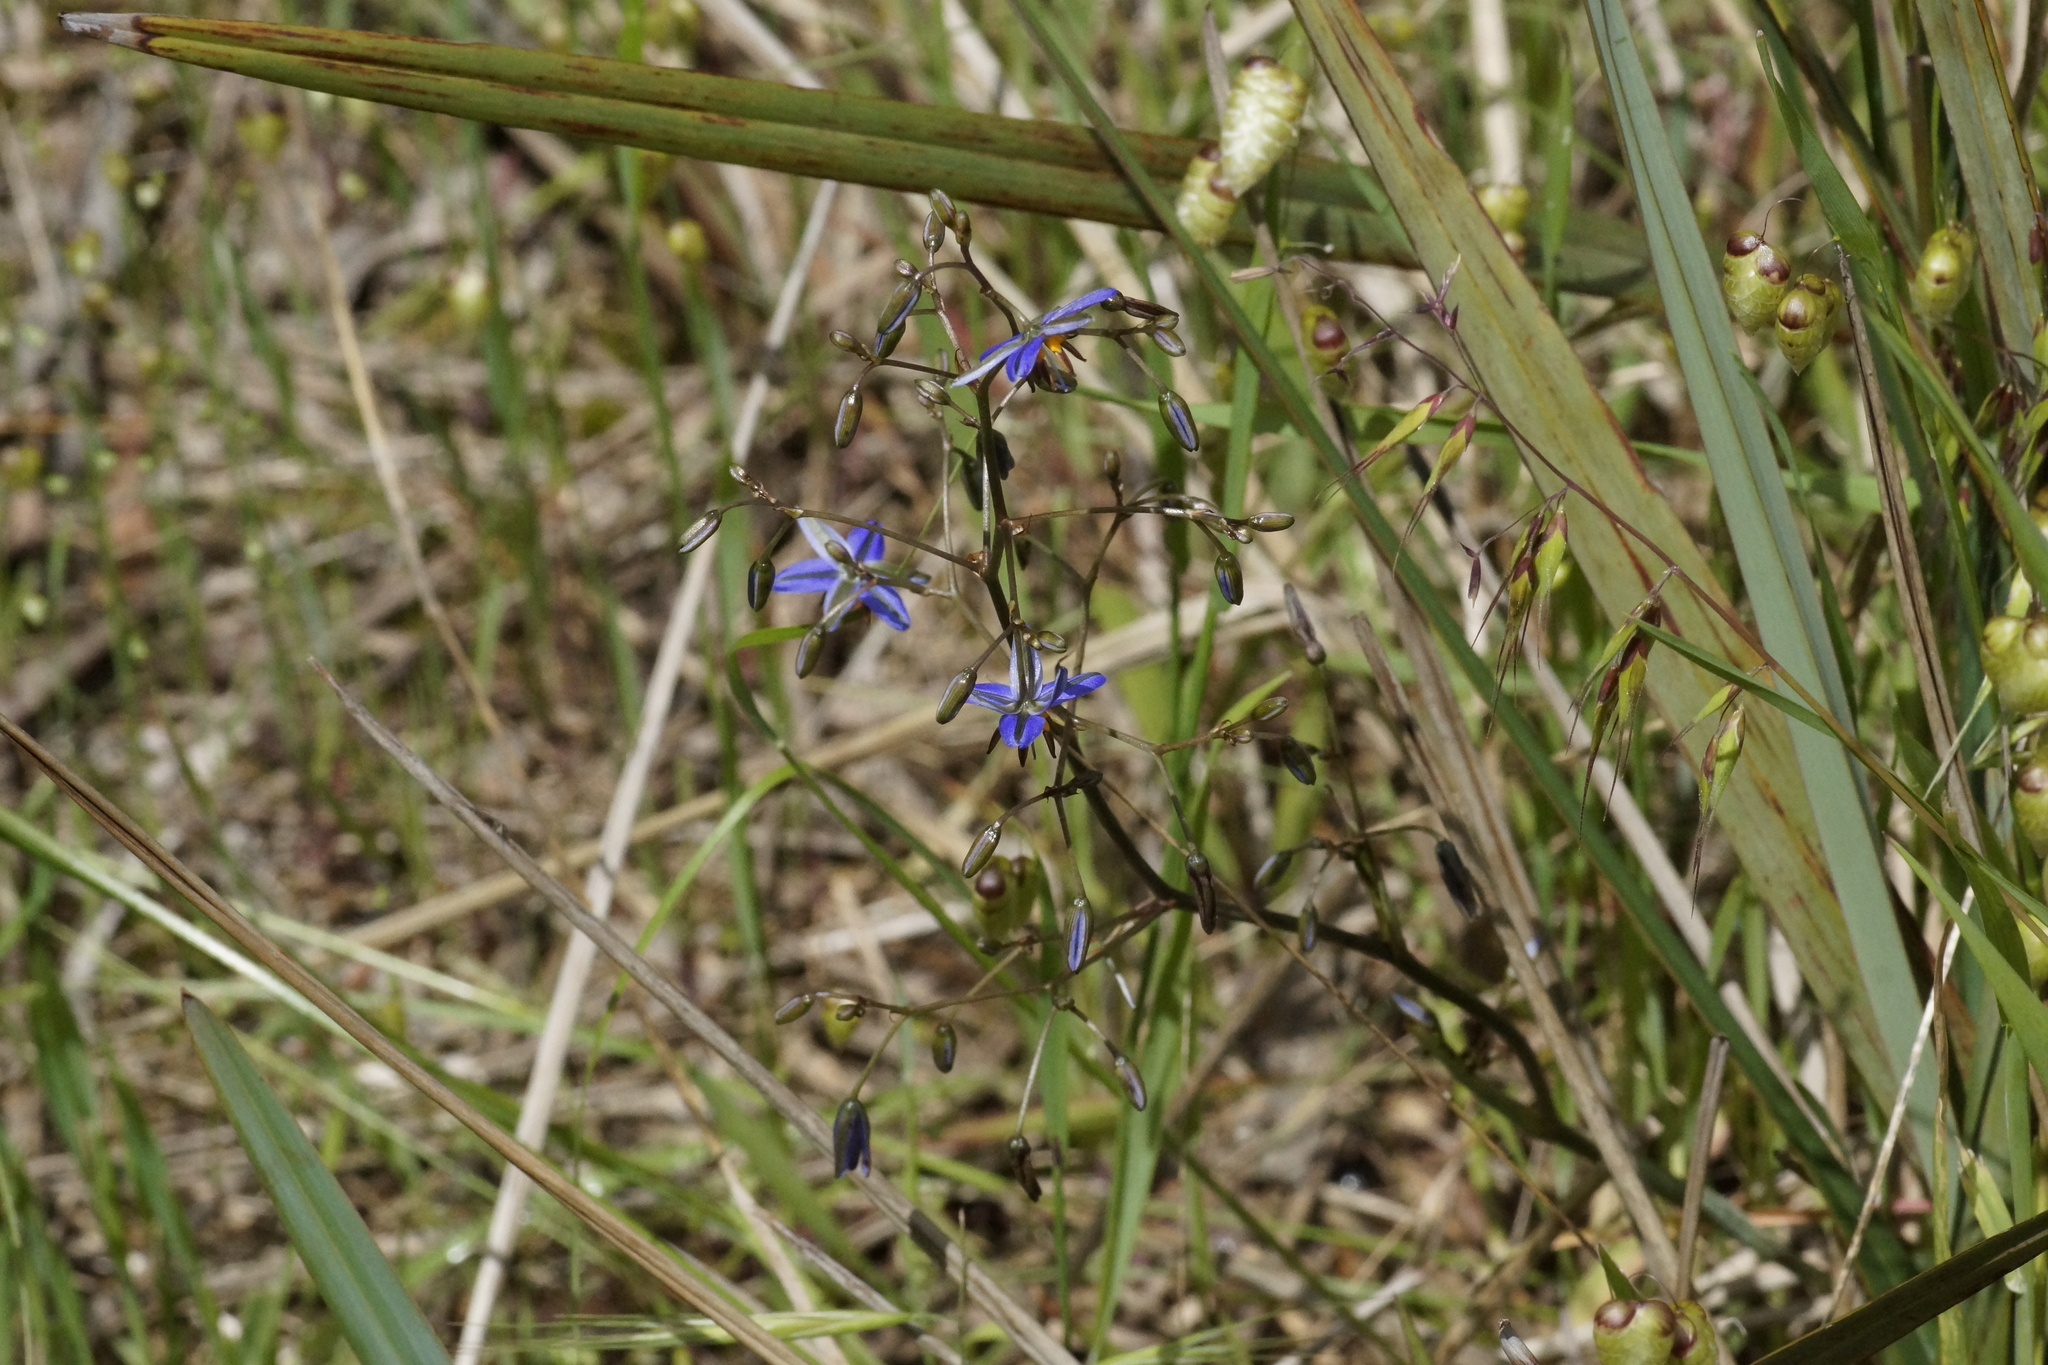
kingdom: Plantae
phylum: Tracheophyta
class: Liliopsida
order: Asparagales
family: Asphodelaceae
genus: Dianella
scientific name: Dianella revoluta
